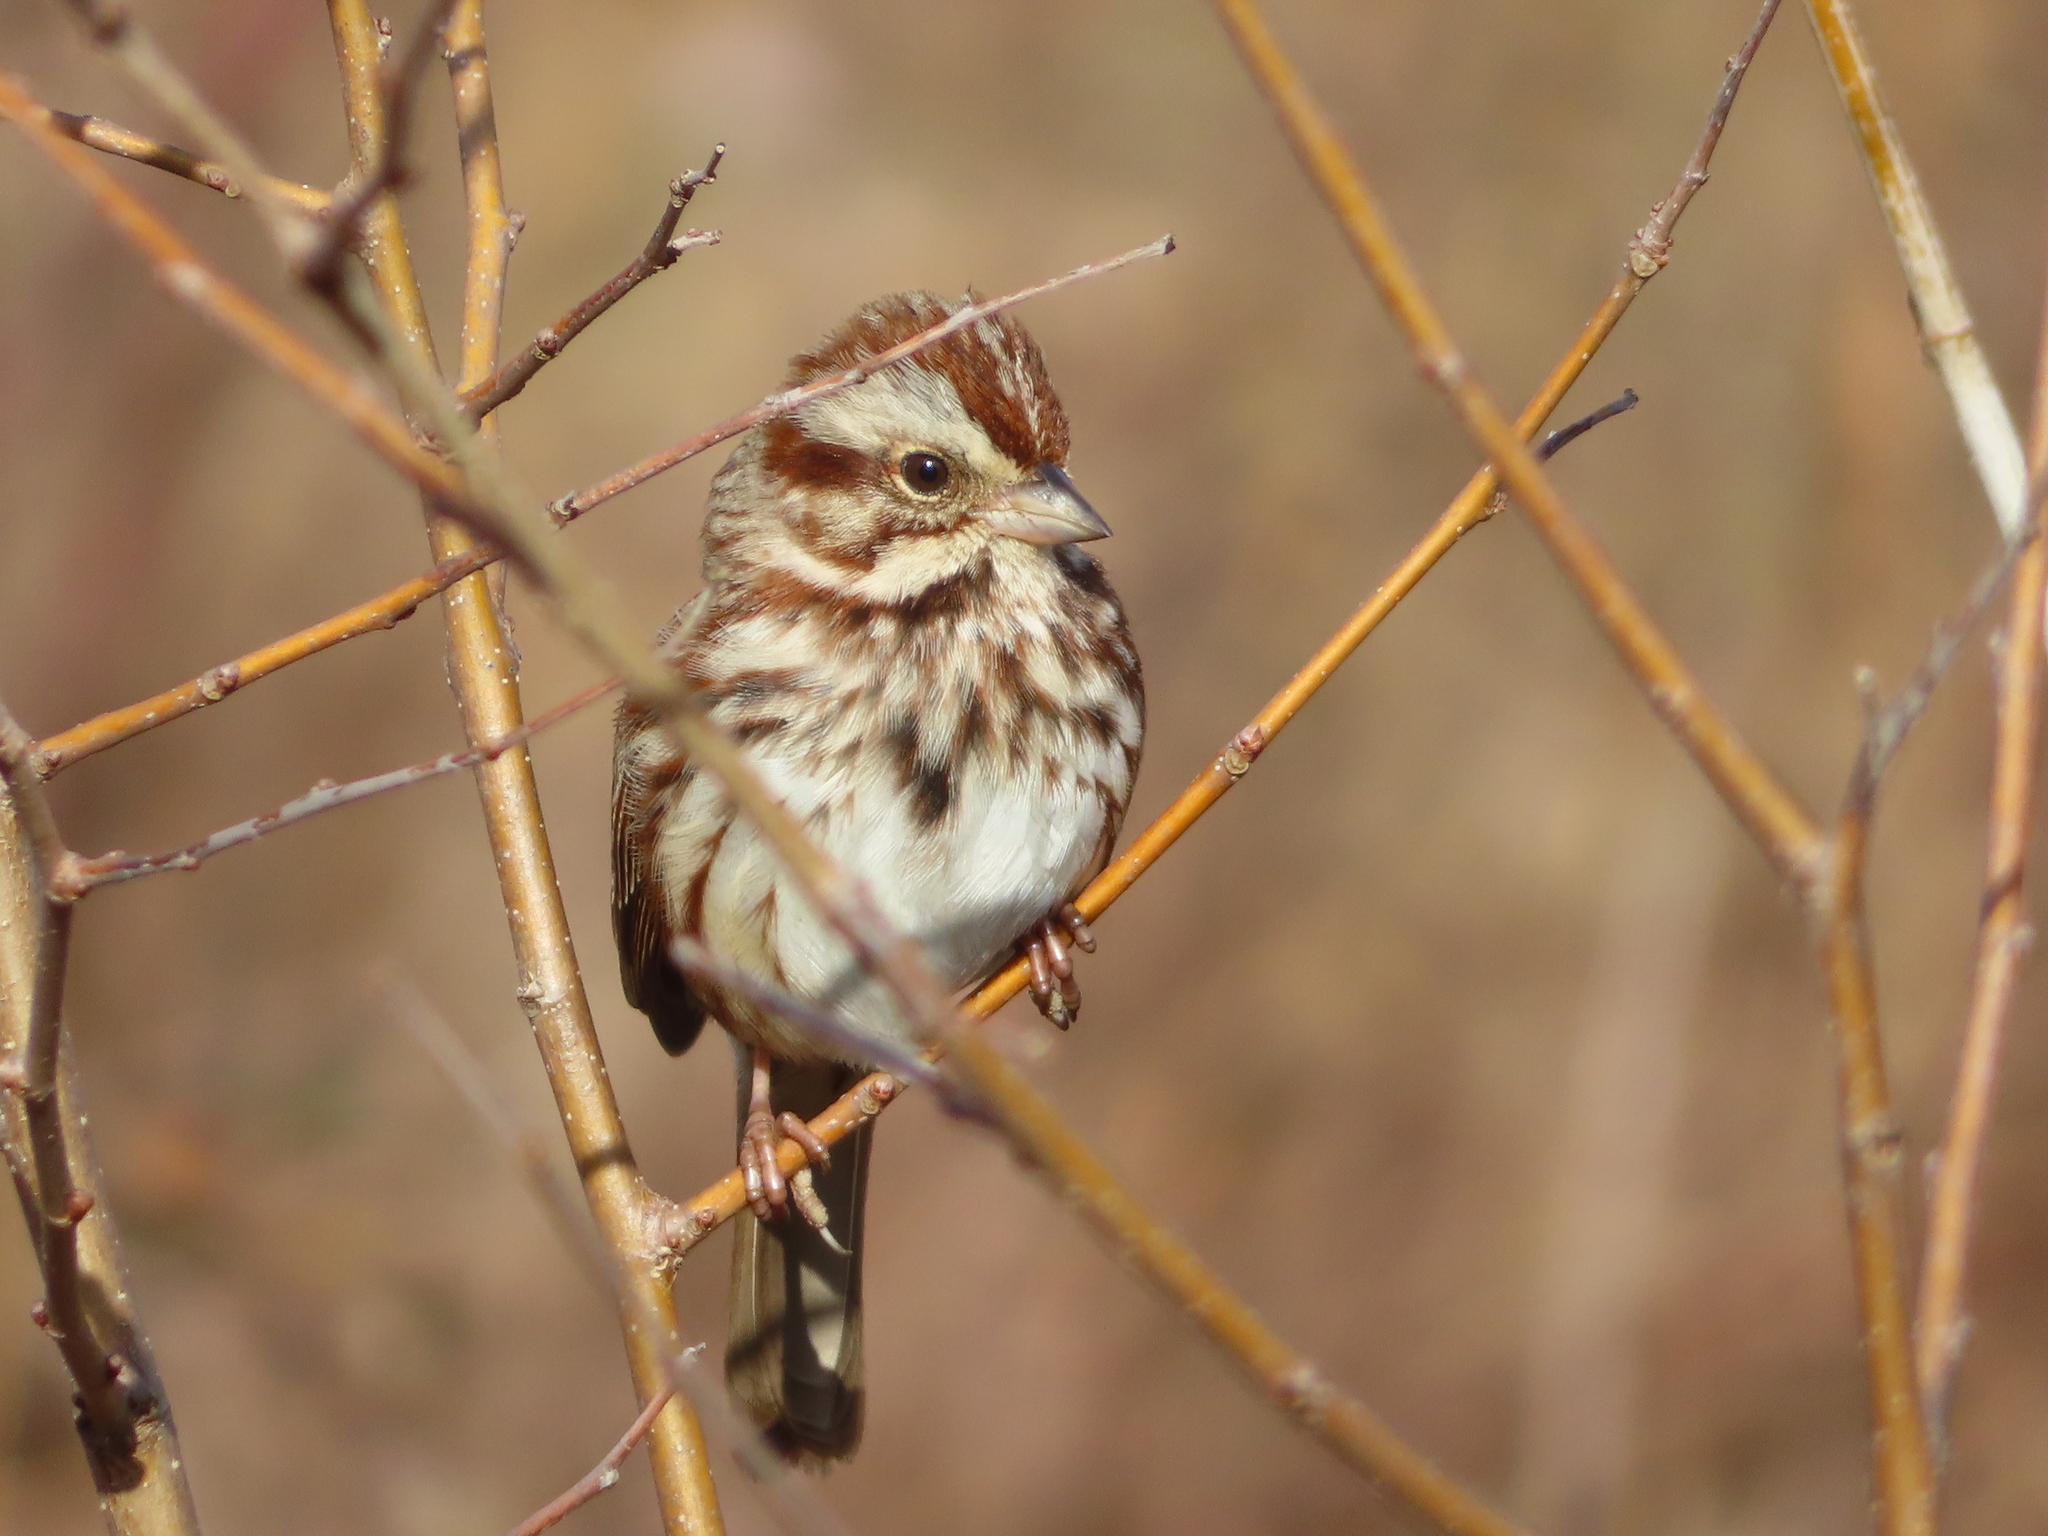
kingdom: Animalia
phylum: Chordata
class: Aves
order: Passeriformes
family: Passerellidae
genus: Melospiza
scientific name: Melospiza melodia
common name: Song sparrow
